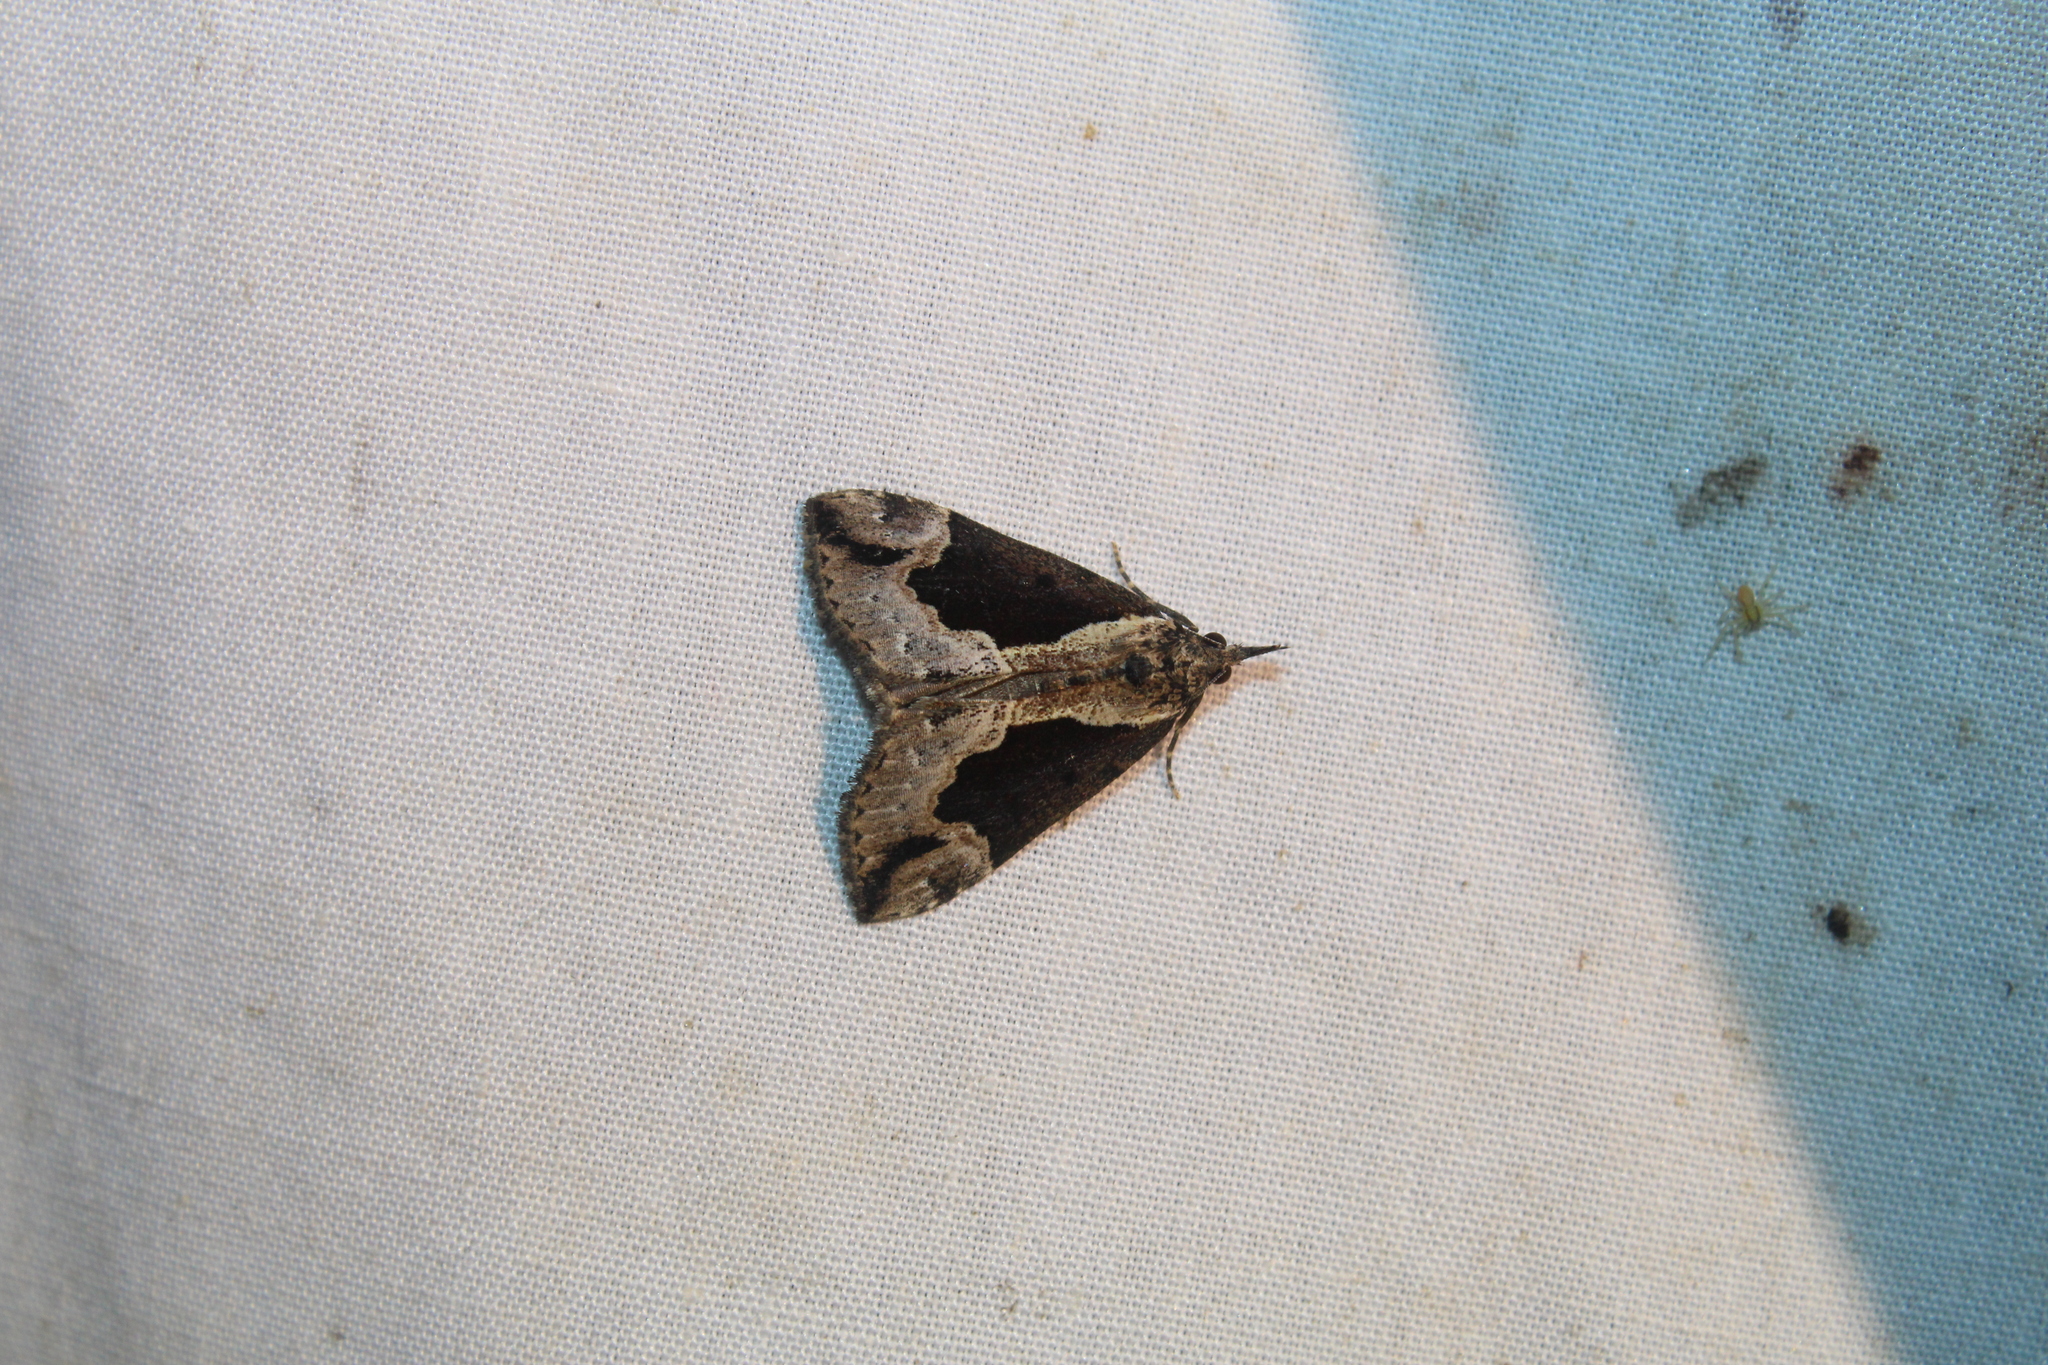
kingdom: Animalia
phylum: Arthropoda
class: Insecta
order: Lepidoptera
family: Erebidae
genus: Hypena
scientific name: Hypena baltimoralis
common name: Baltimore snout
